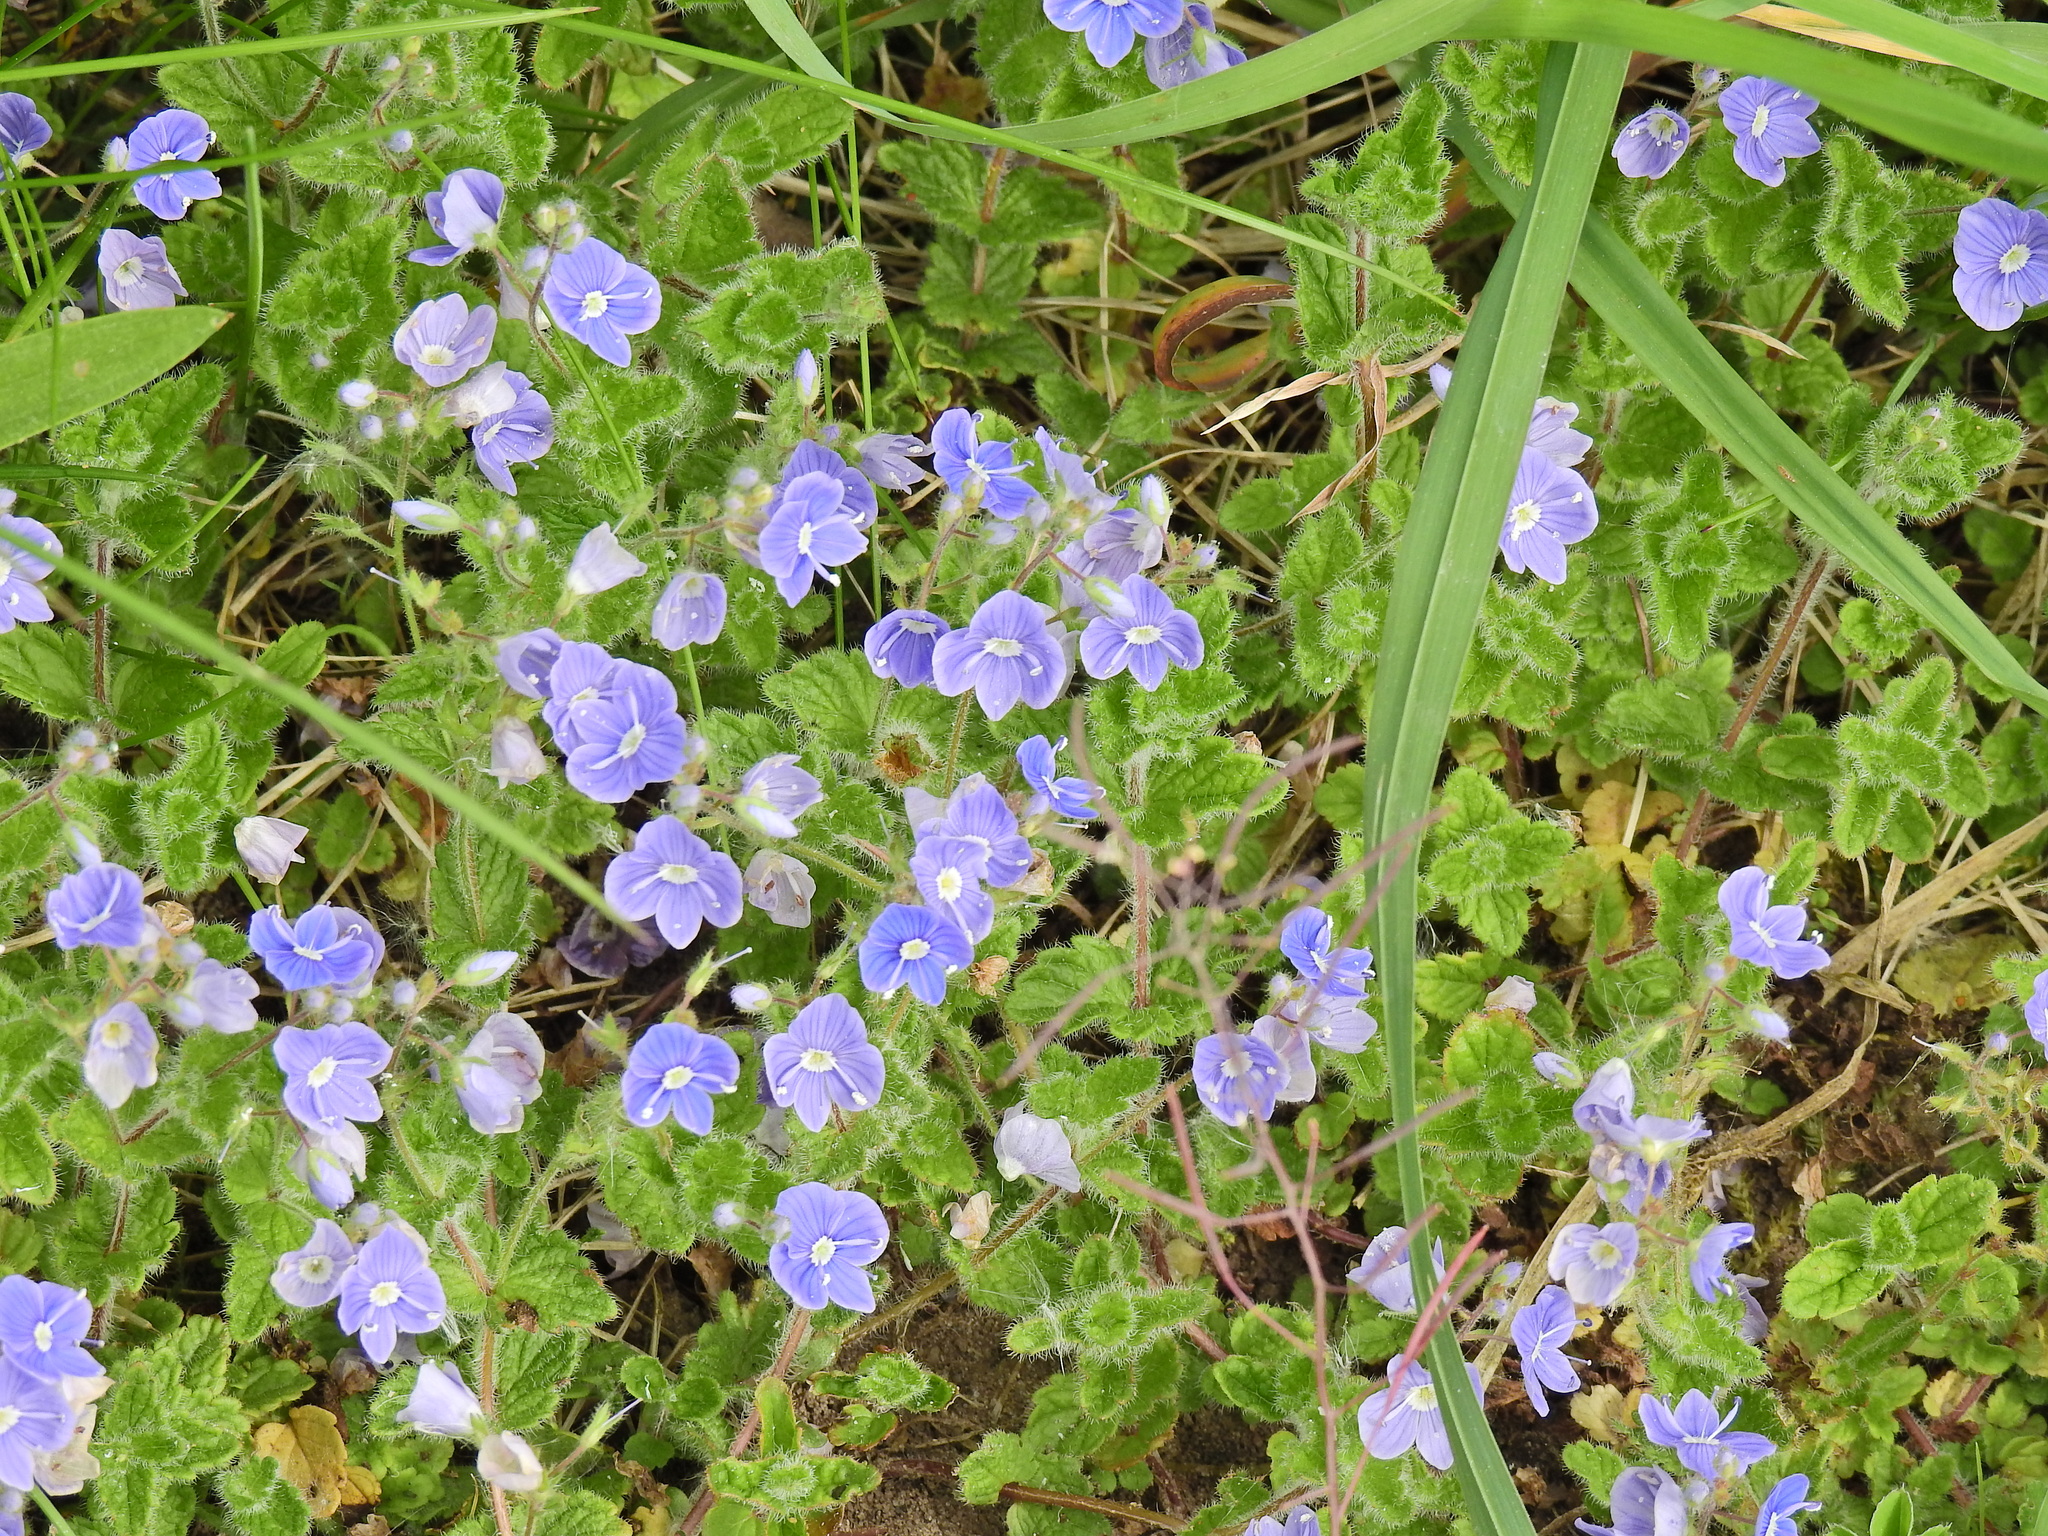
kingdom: Plantae
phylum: Tracheophyta
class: Magnoliopsida
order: Lamiales
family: Plantaginaceae
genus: Veronica
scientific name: Veronica chamaedrys
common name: Germander speedwell
